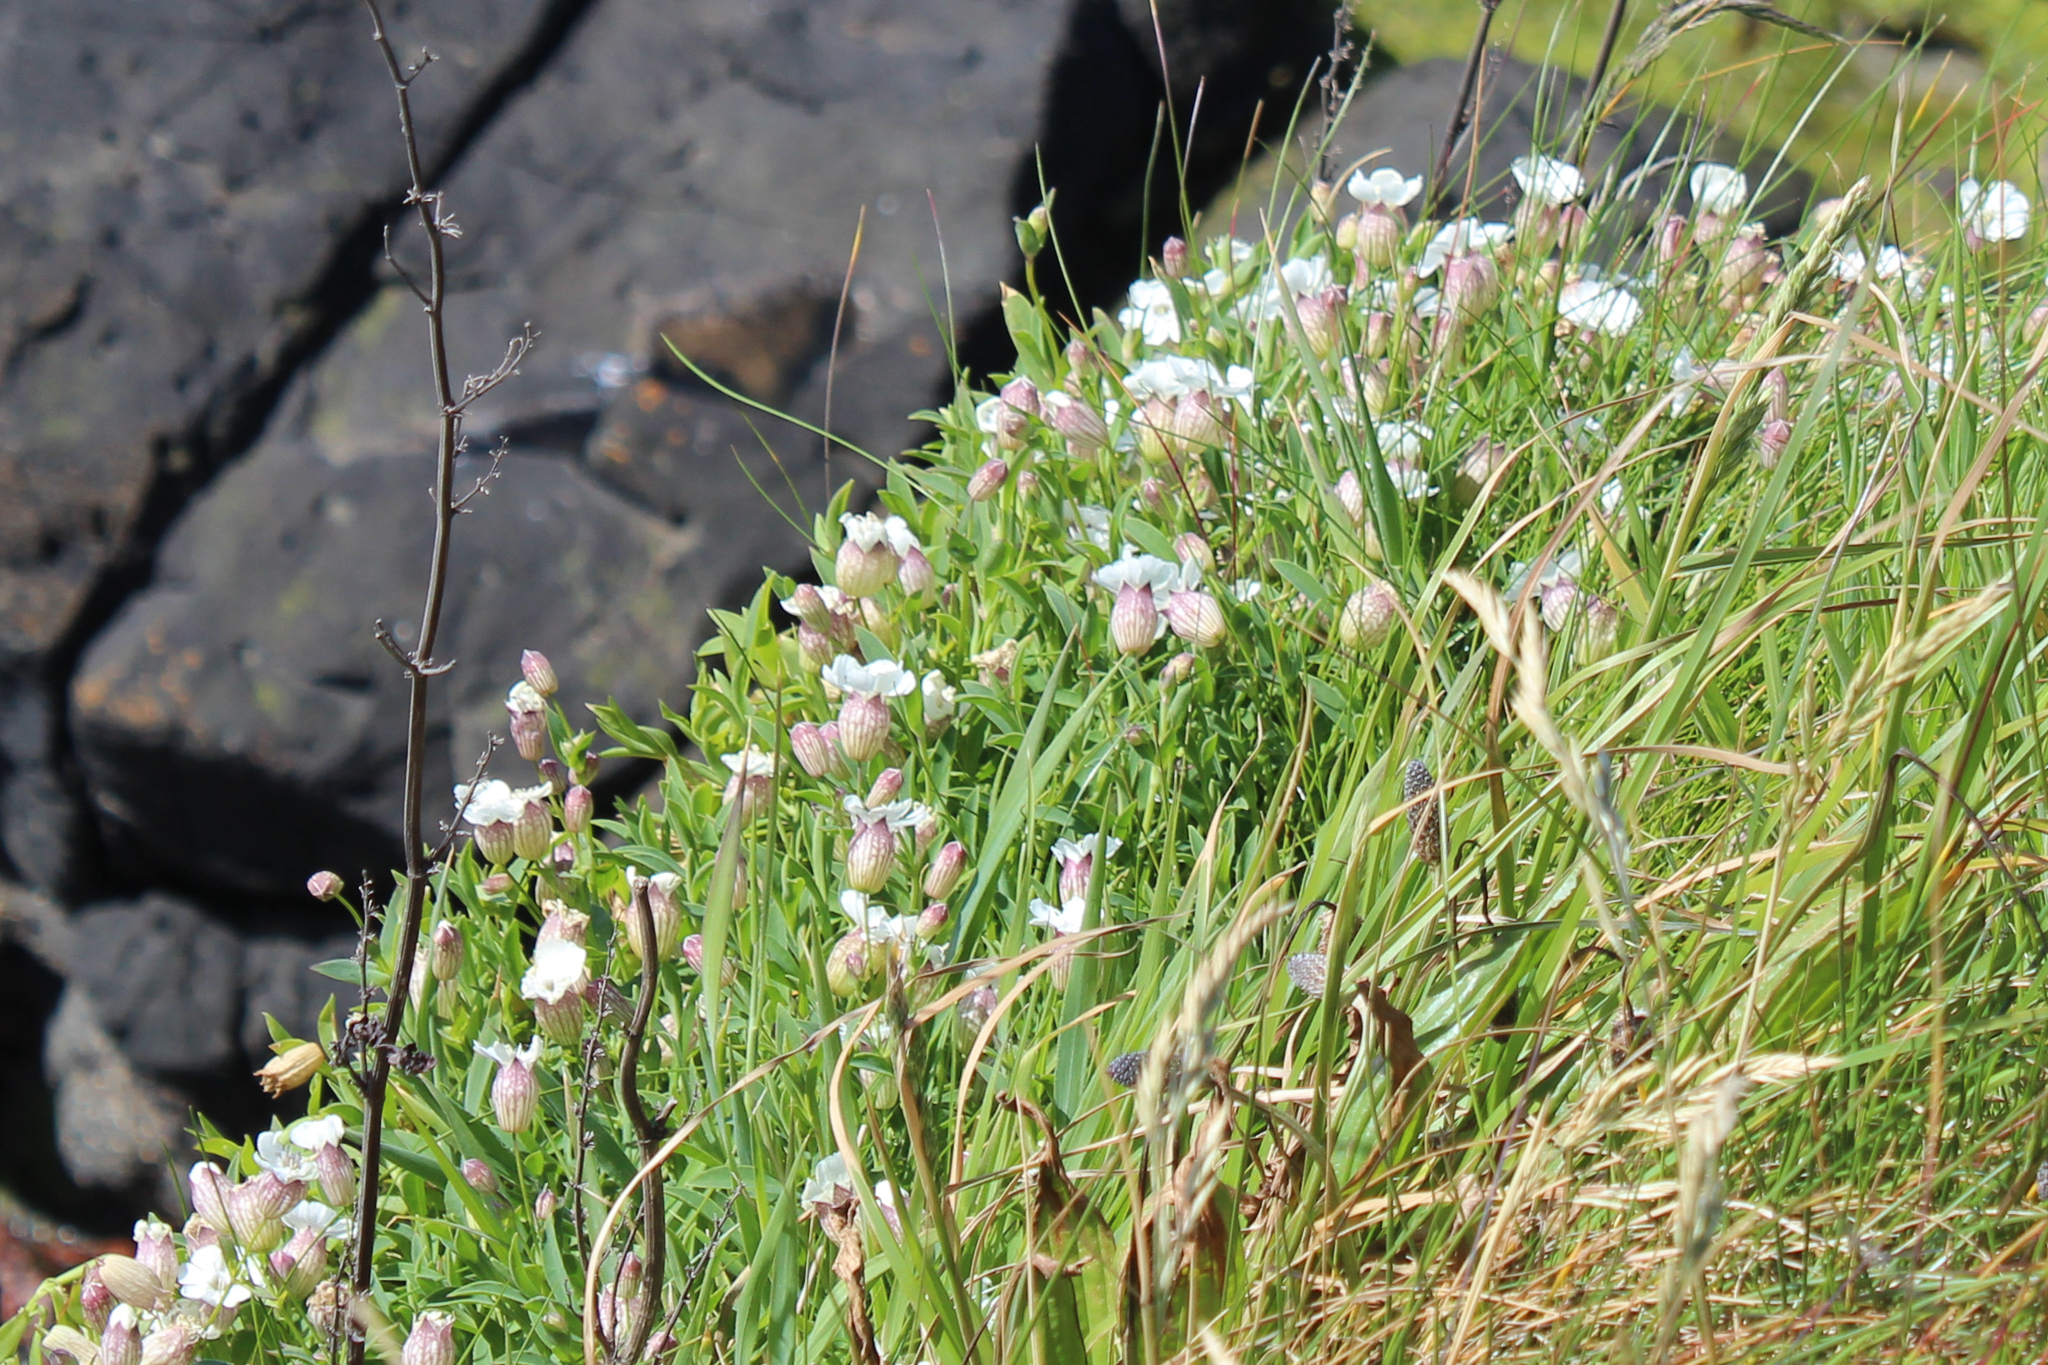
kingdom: Plantae
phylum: Tracheophyta
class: Magnoliopsida
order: Caryophyllales
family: Caryophyllaceae
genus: Silene
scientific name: Silene uniflora
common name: Sea campion
